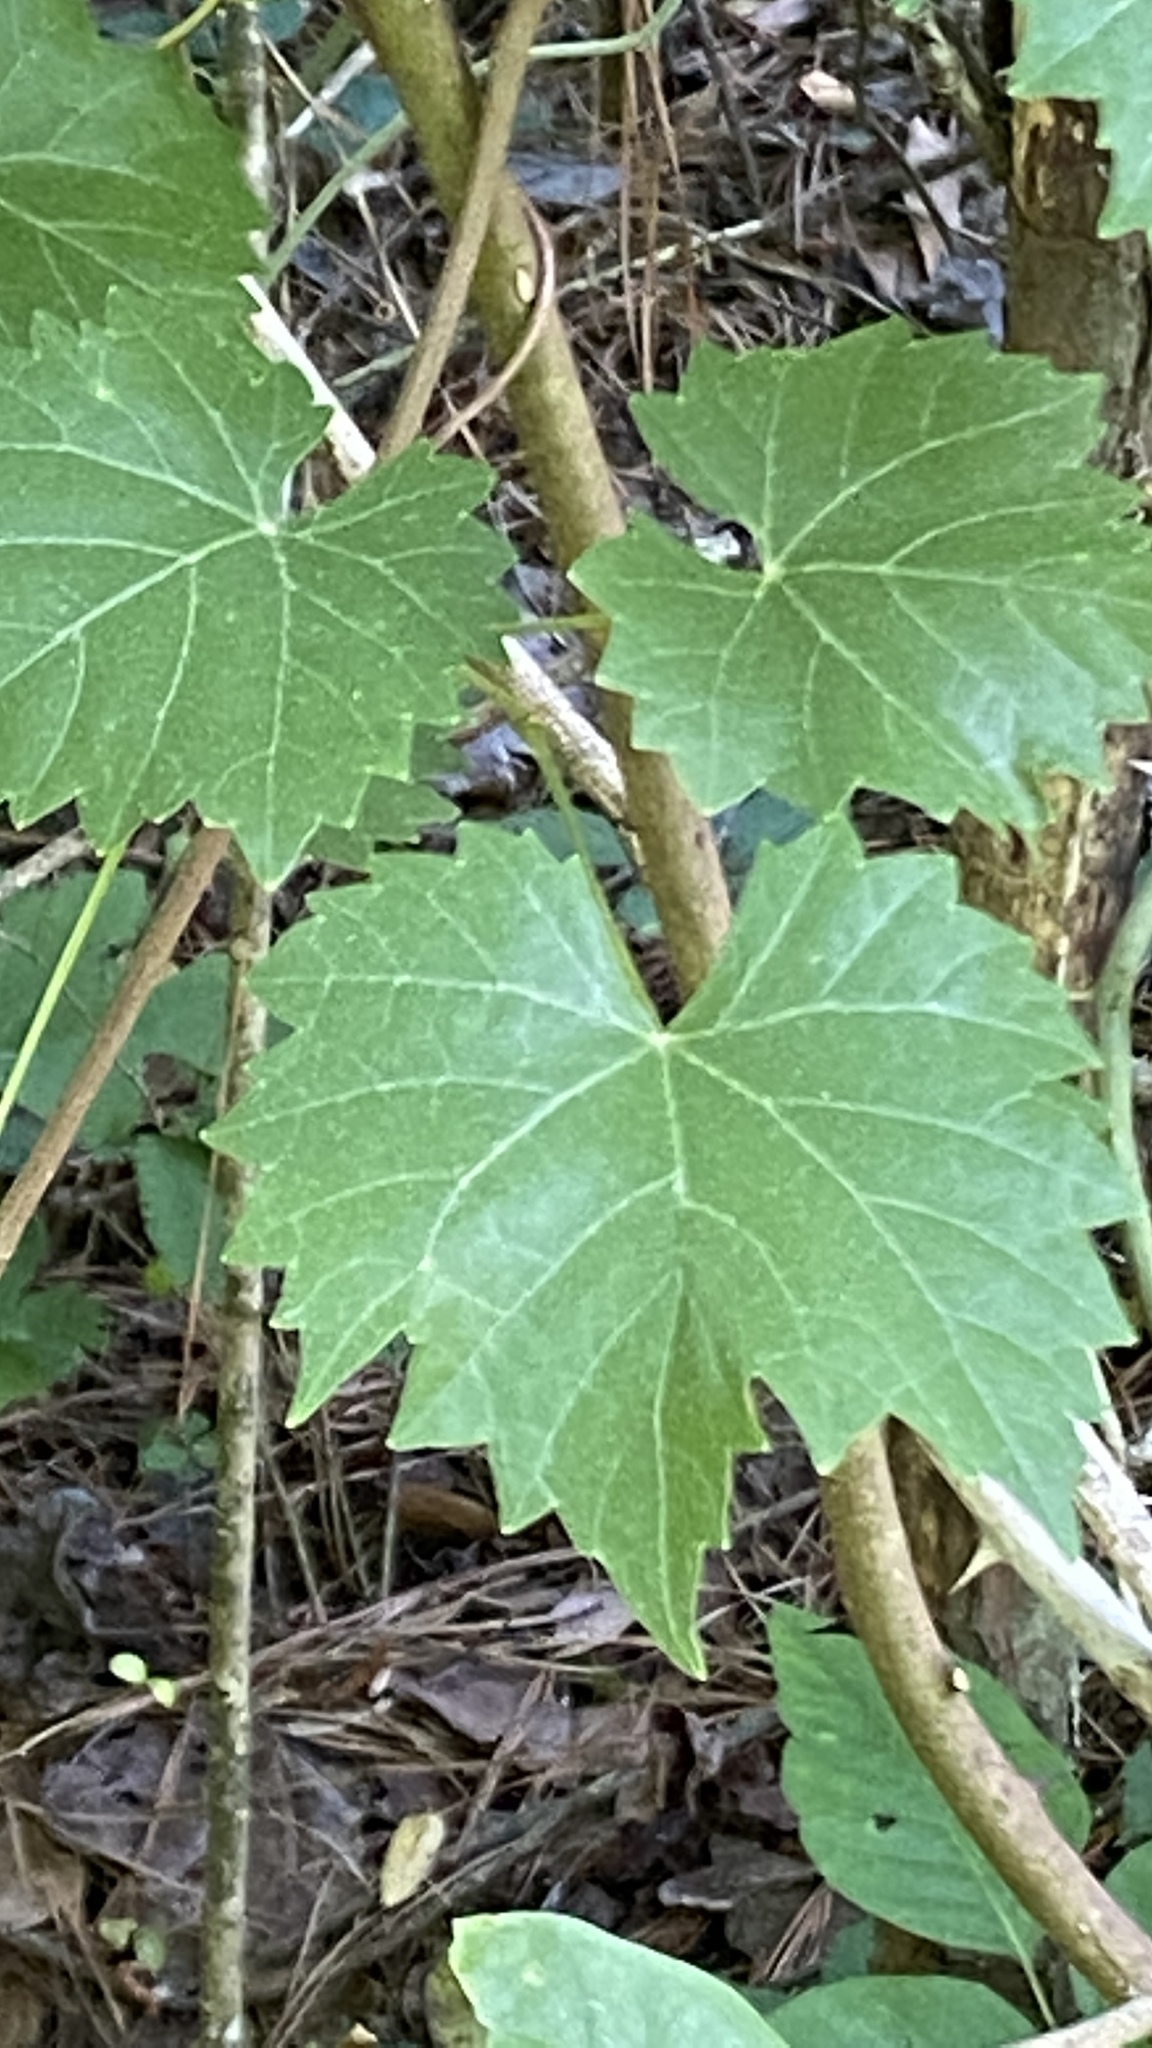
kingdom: Plantae
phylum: Tracheophyta
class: Magnoliopsida
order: Vitales
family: Vitaceae
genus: Vitis
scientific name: Vitis rotundifolia
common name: Muscadine grape
